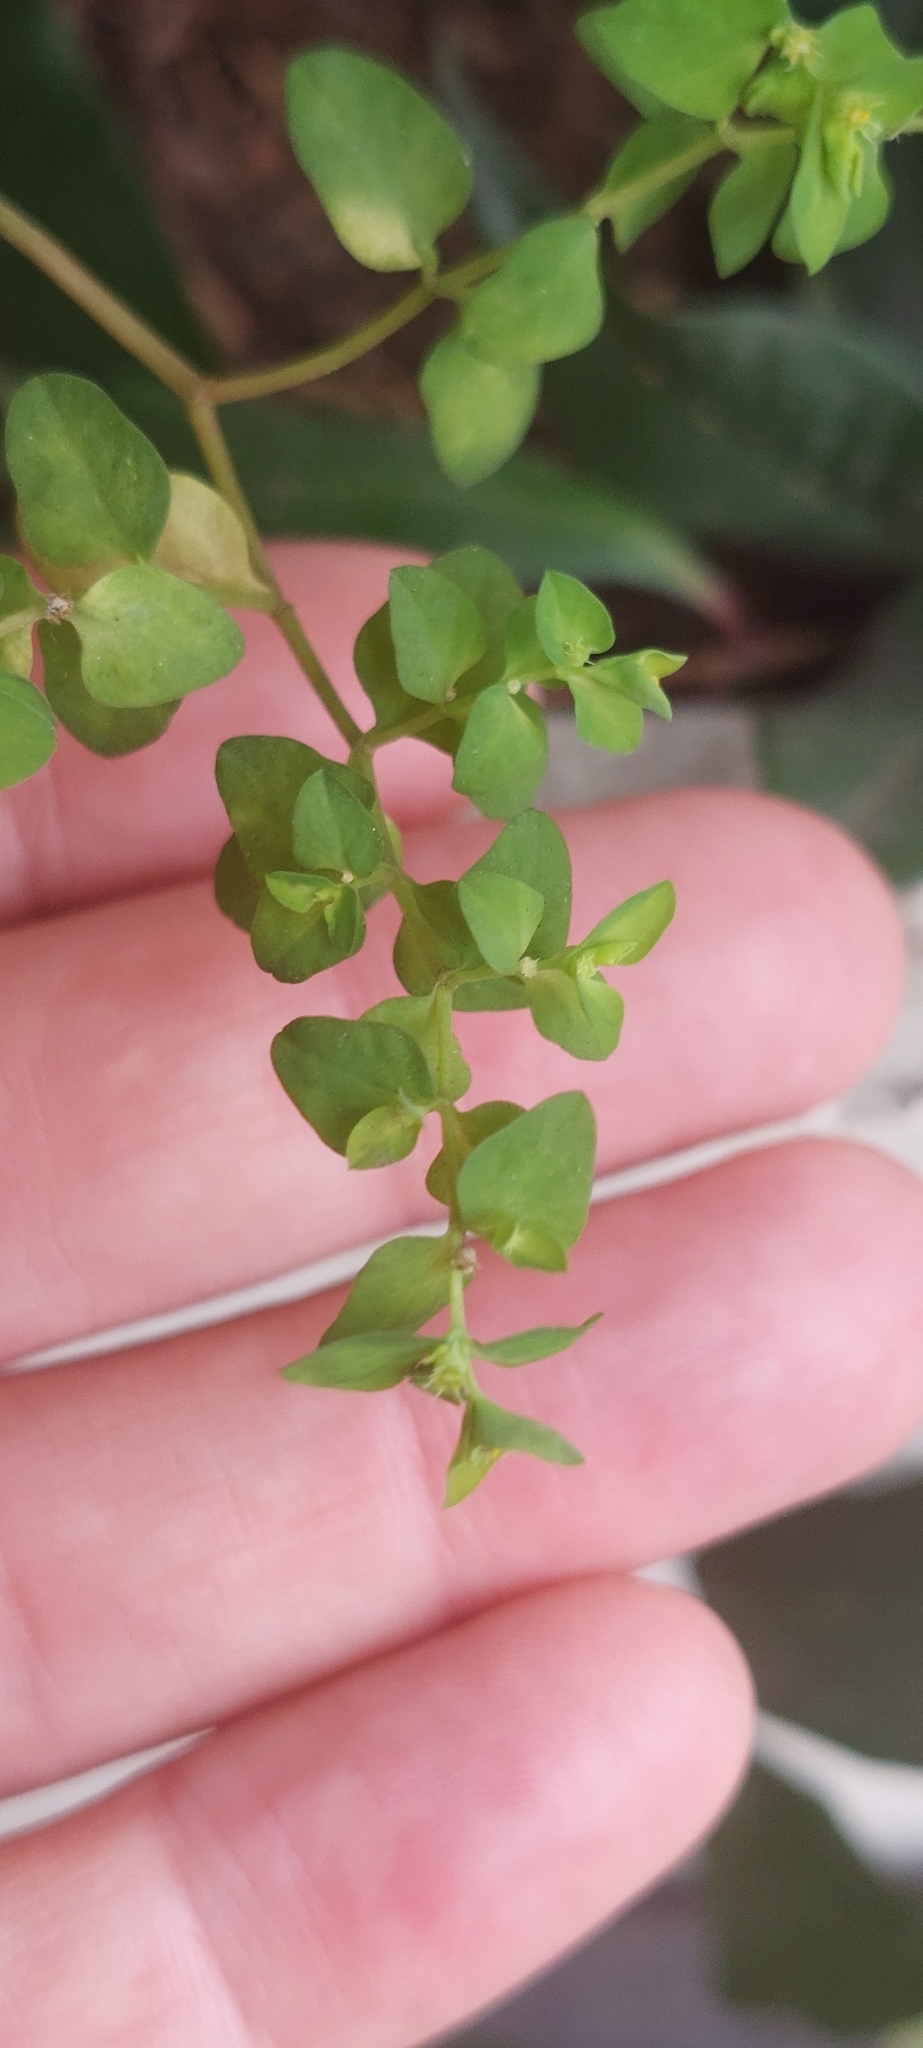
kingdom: Plantae
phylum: Tracheophyta
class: Magnoliopsida
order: Malpighiales
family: Euphorbiaceae
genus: Euphorbia
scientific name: Euphorbia peplus
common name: Petty spurge
